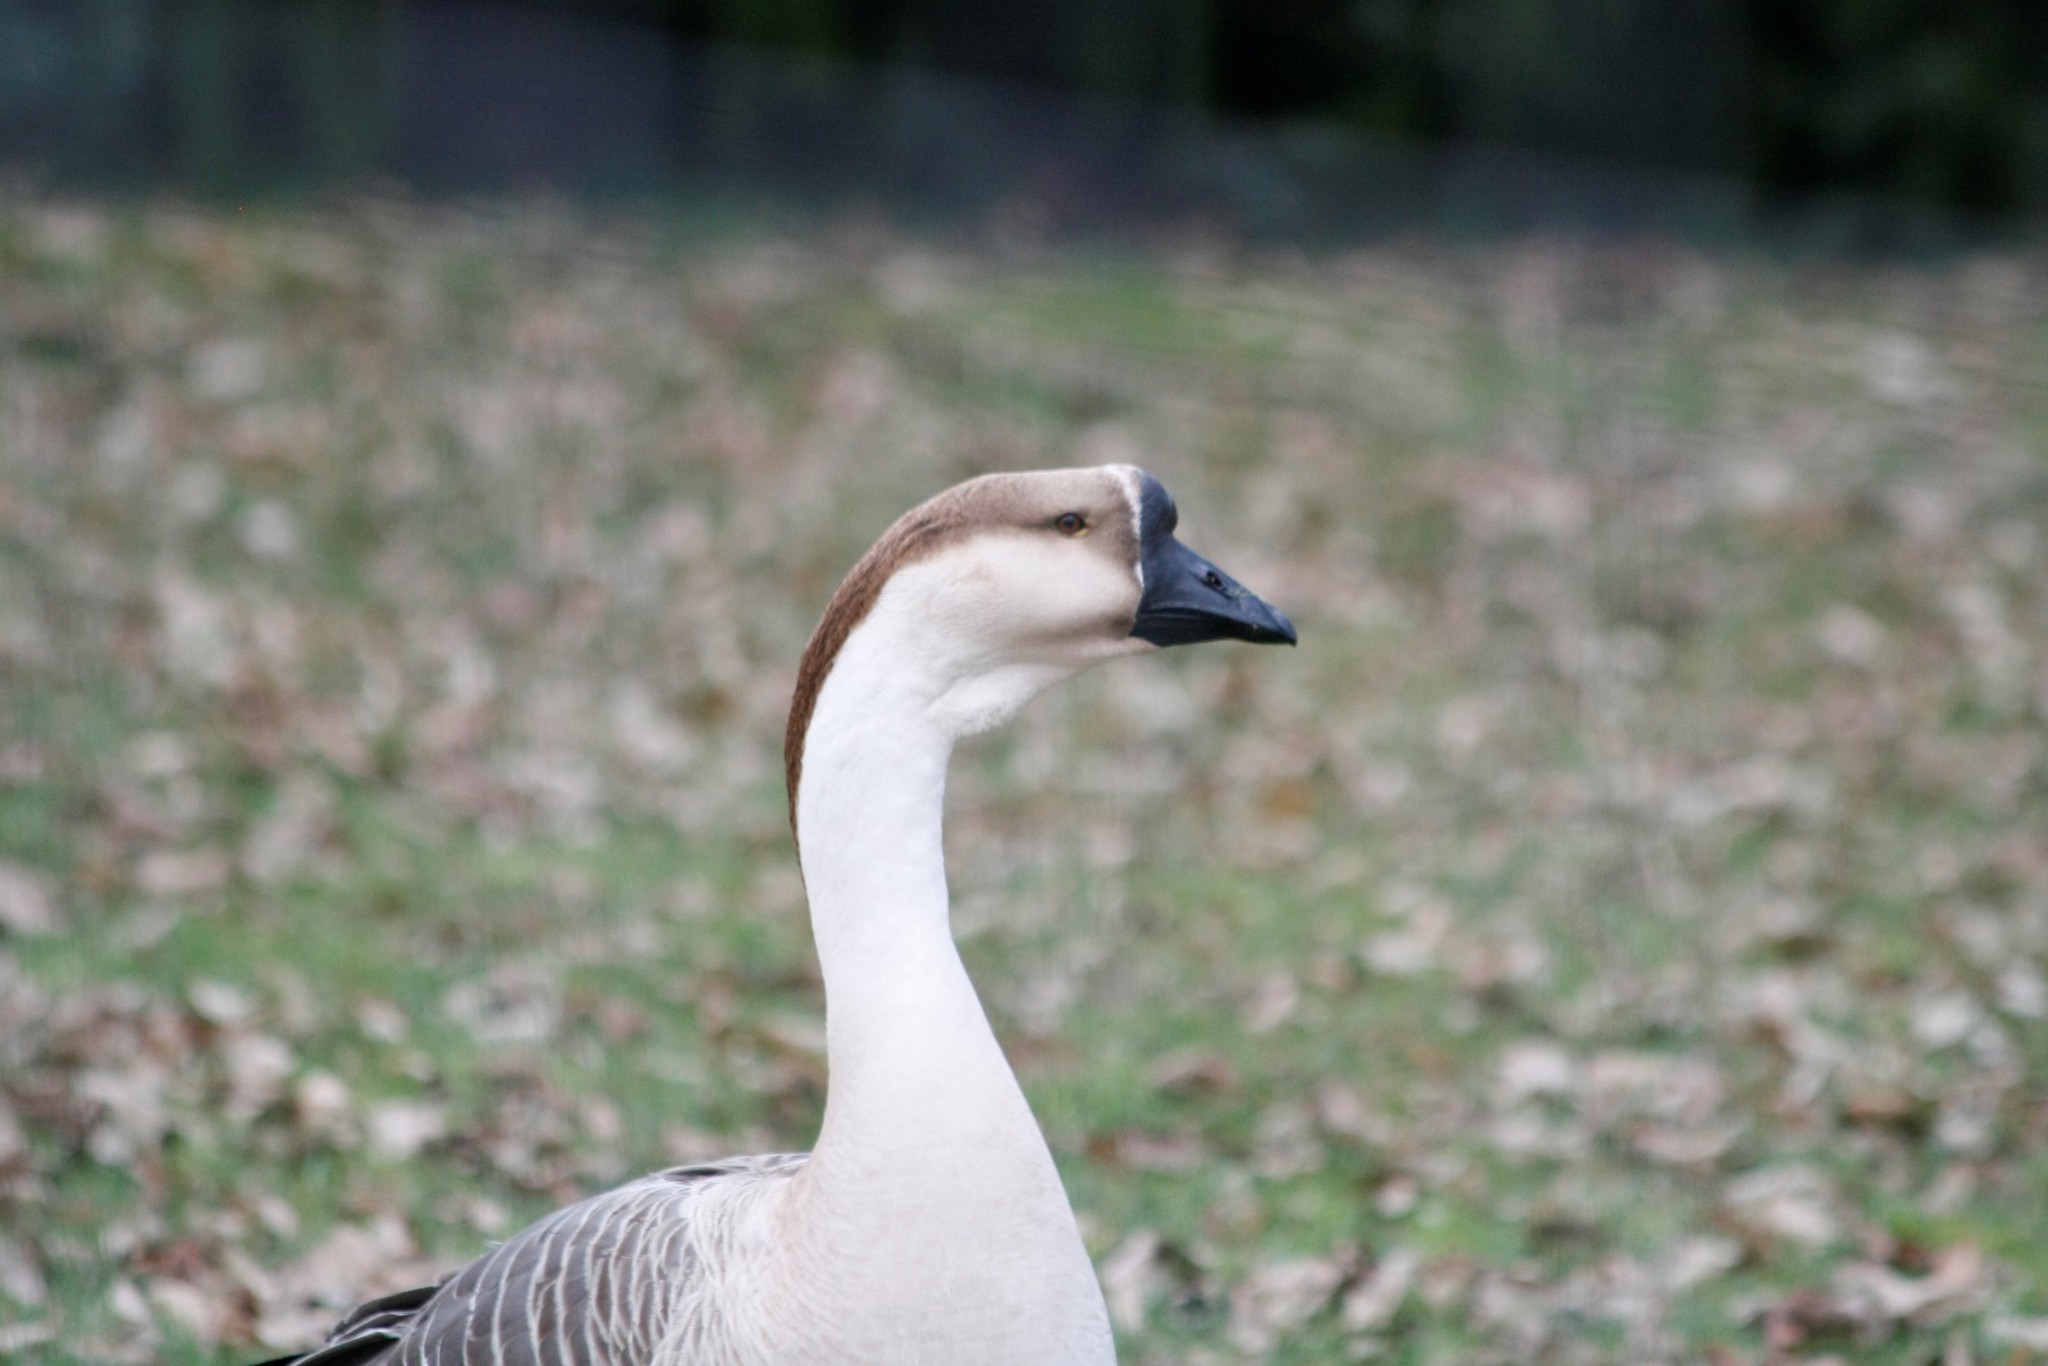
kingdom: Animalia
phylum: Chordata
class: Aves
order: Anseriformes
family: Anatidae
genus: Anser
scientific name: Anser cygnoides
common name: Swan goose
